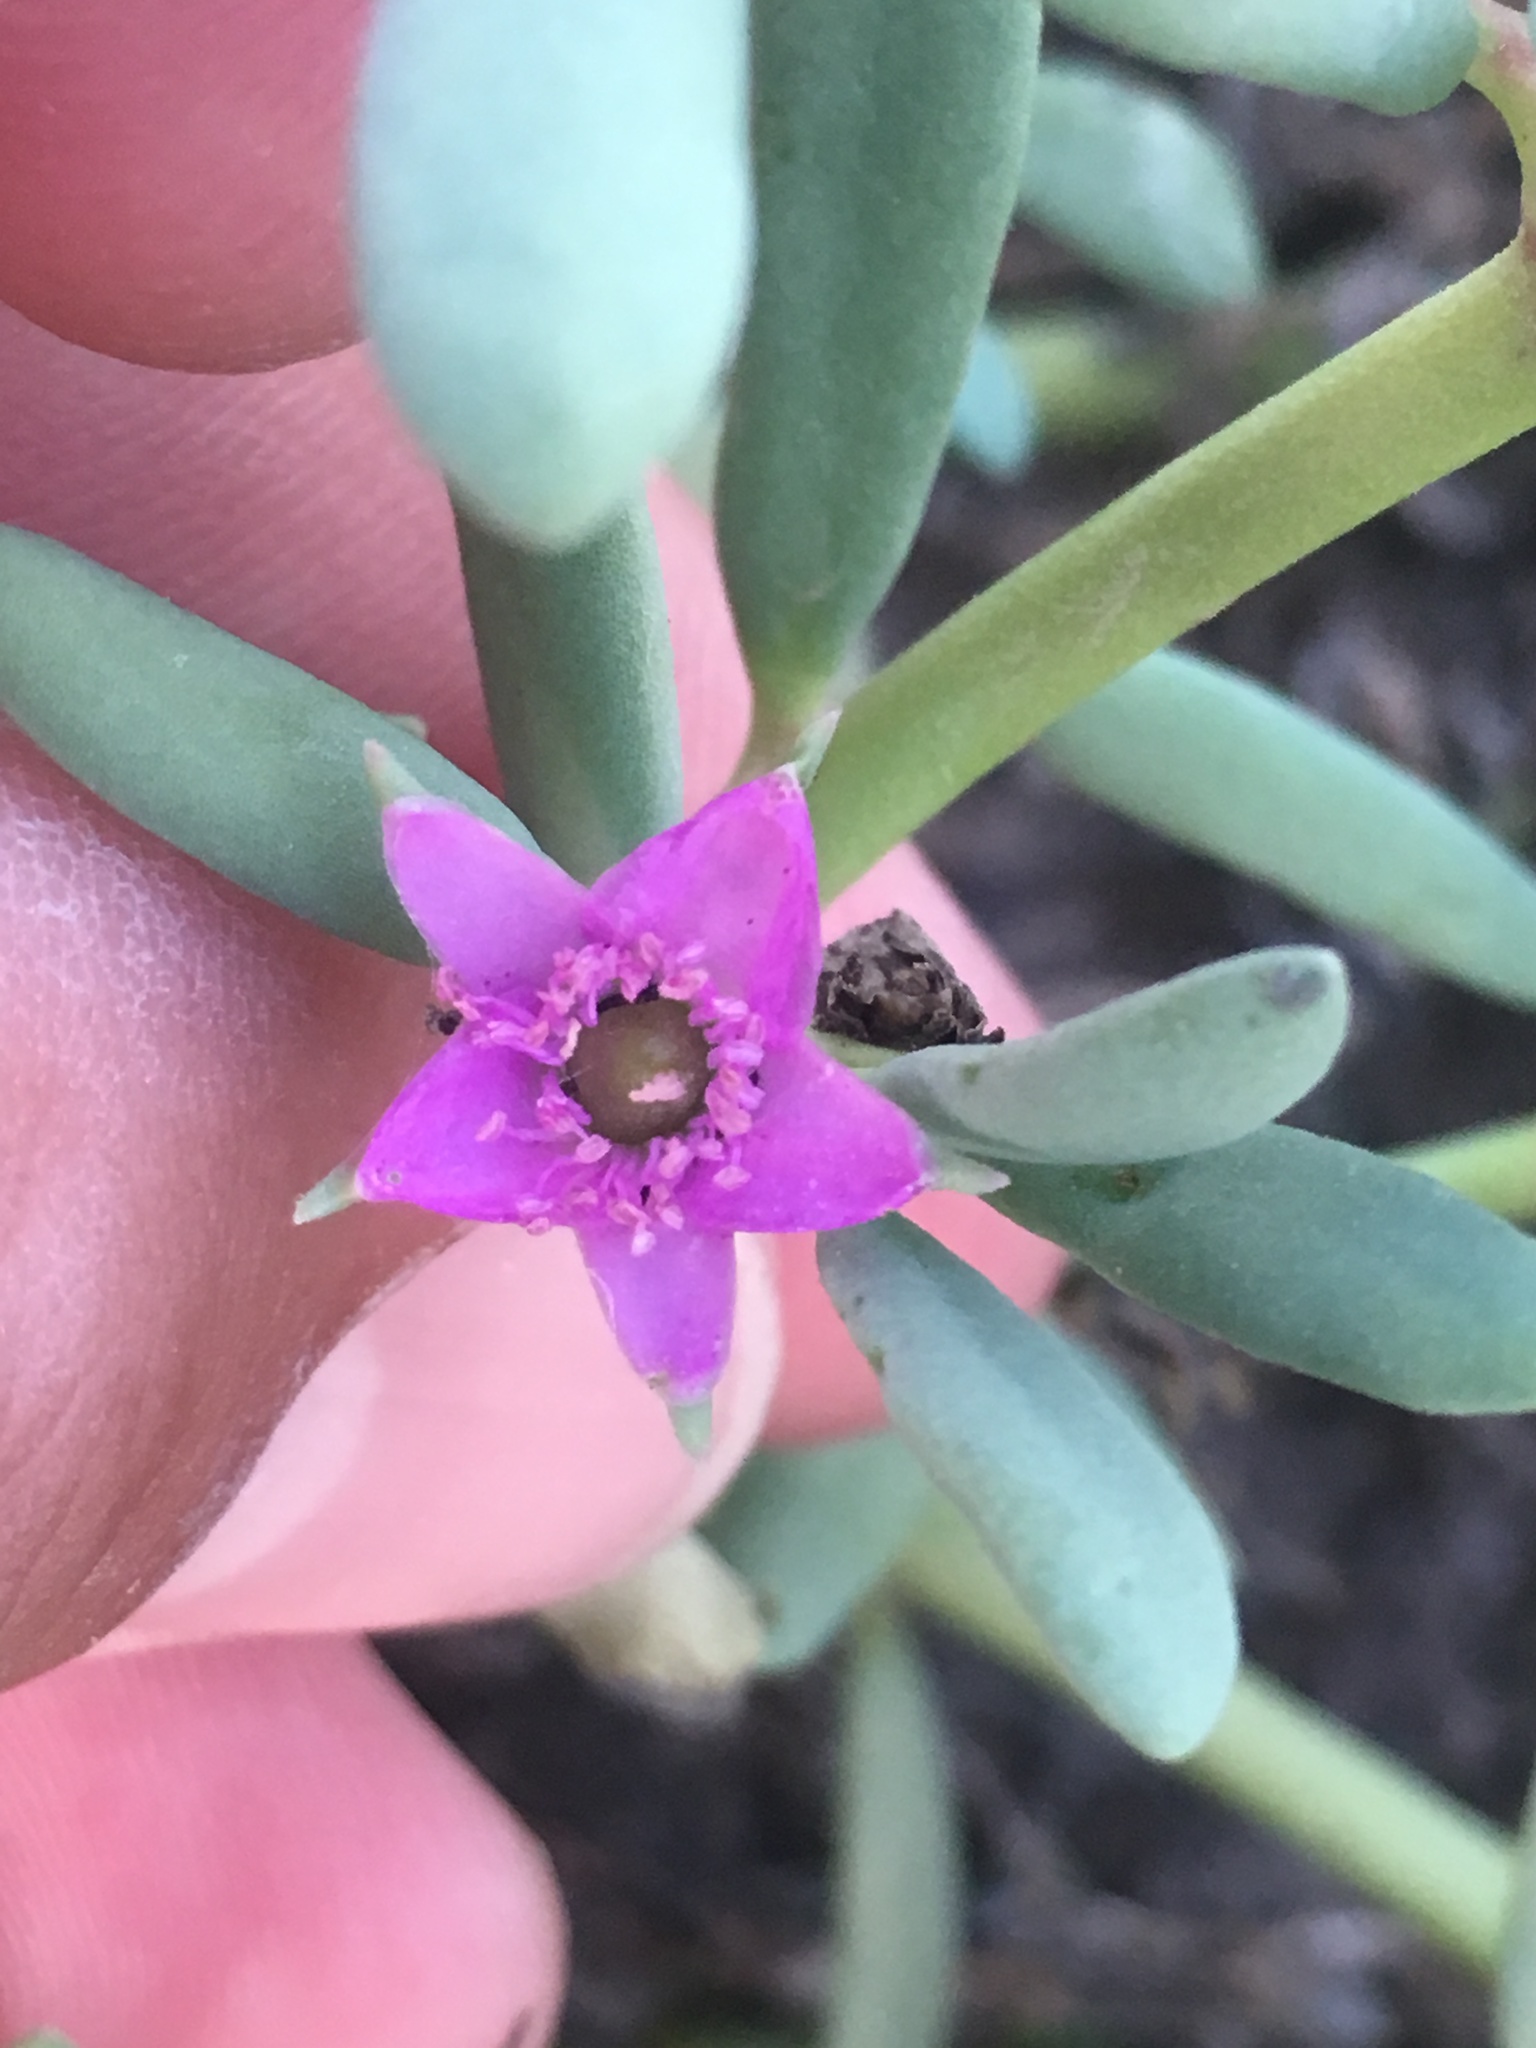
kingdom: Plantae
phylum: Tracheophyta
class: Magnoliopsida
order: Caryophyllales
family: Aizoaceae
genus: Sesuvium
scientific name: Sesuvium portulacastrum
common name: Sea-purslane
